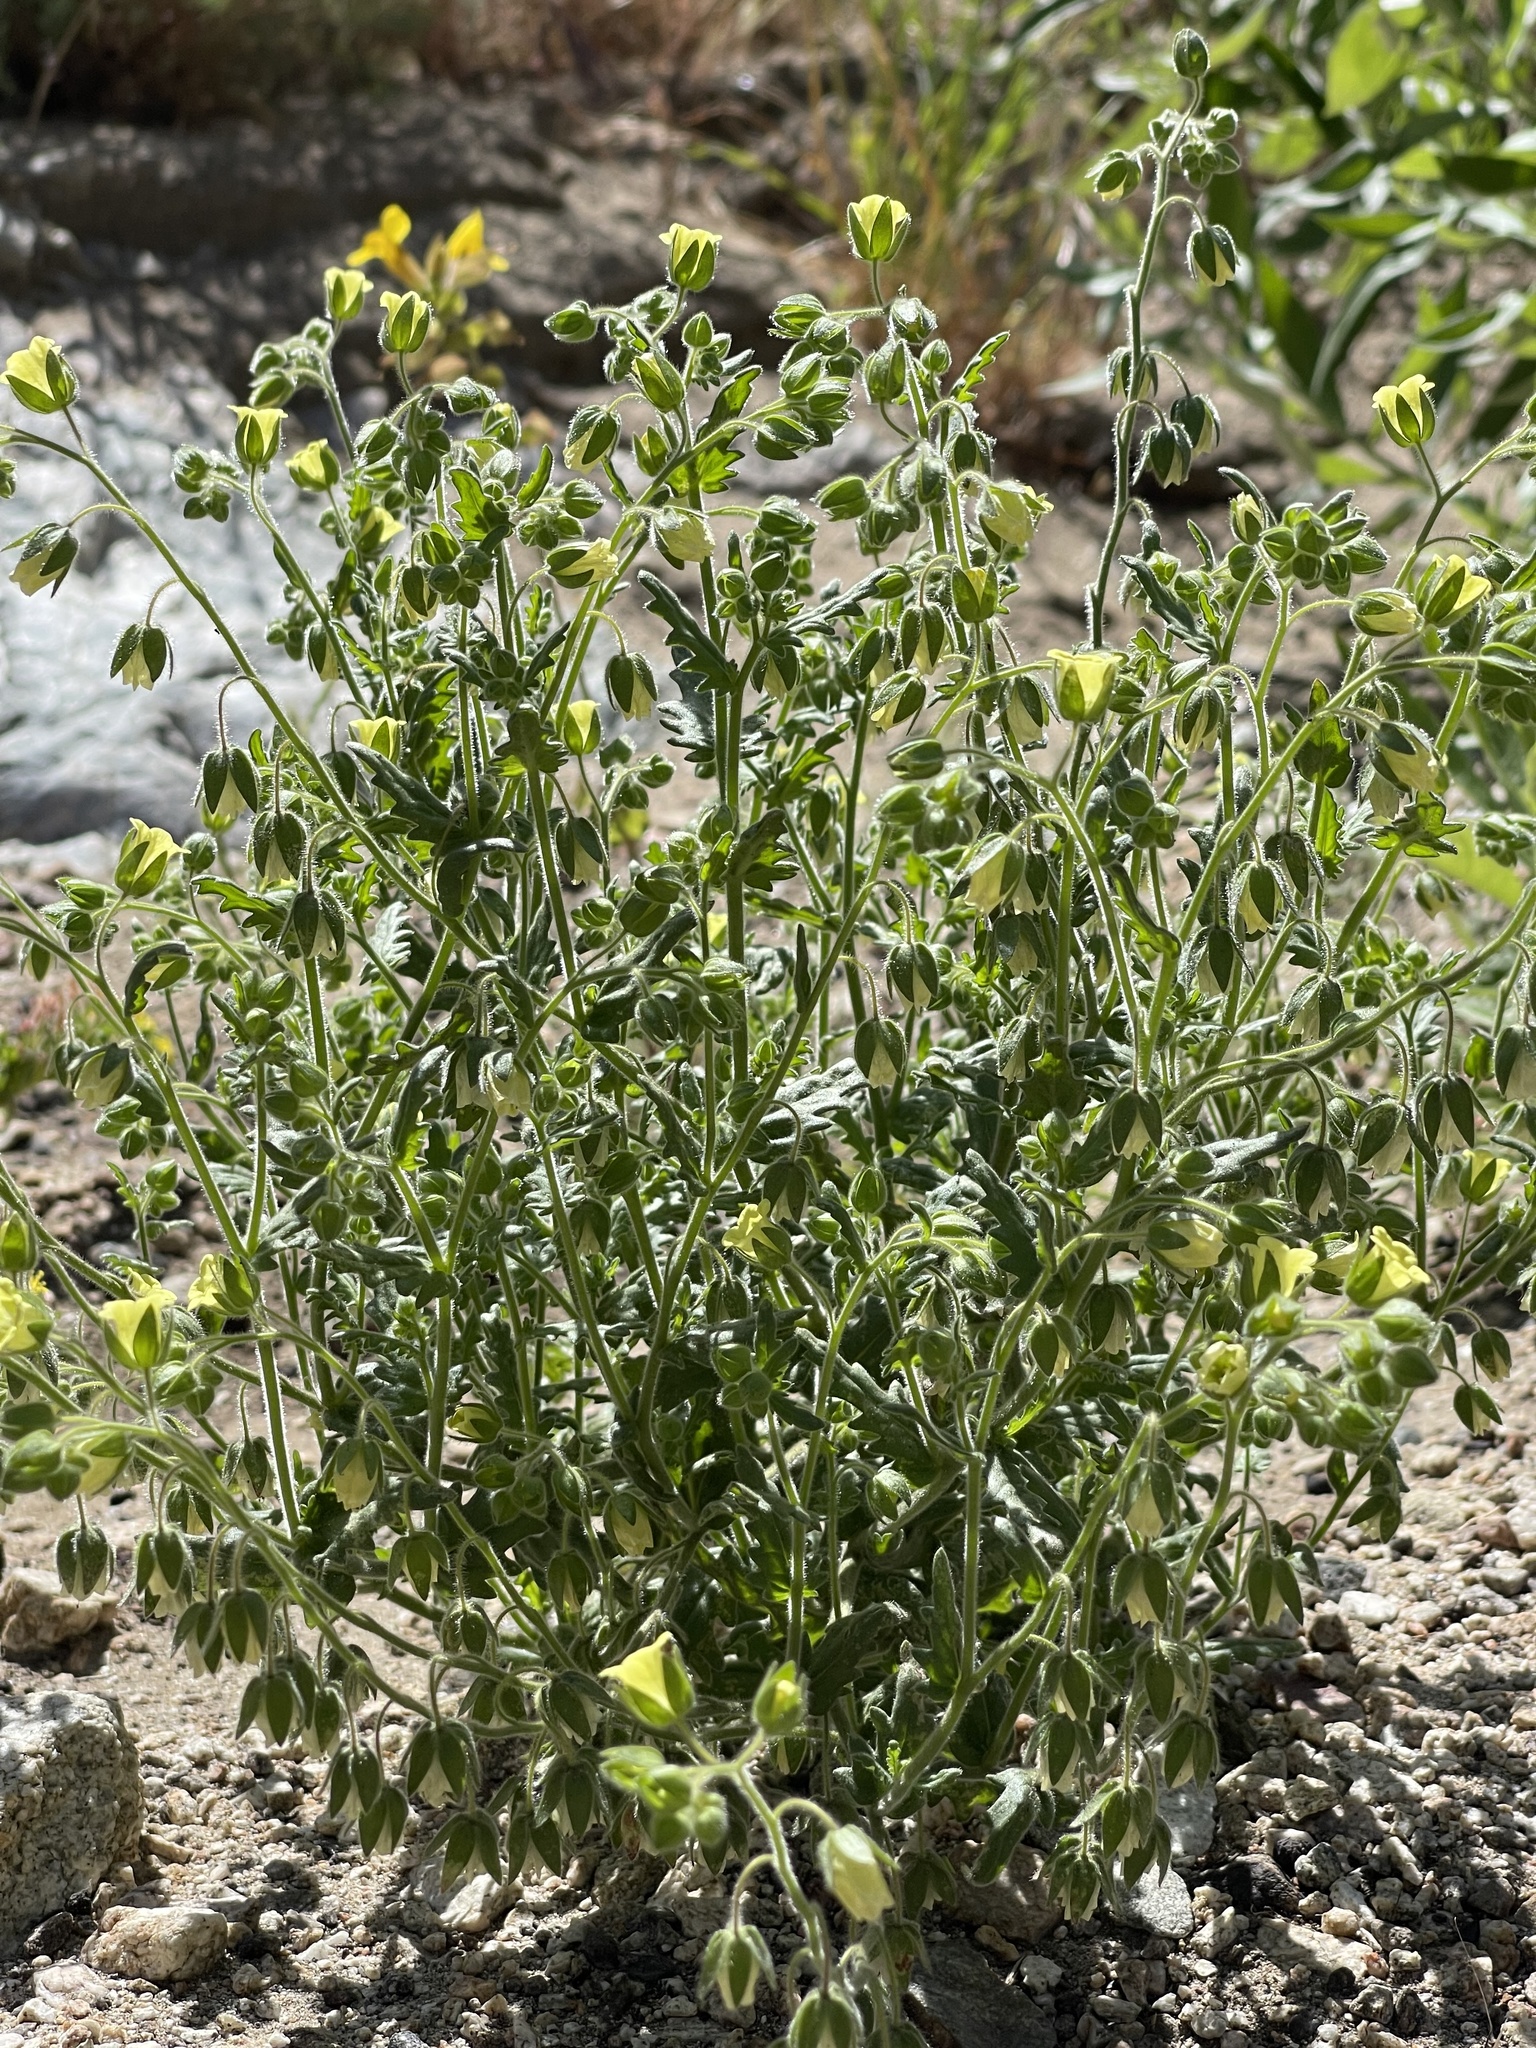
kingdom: Plantae
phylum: Tracheophyta
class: Magnoliopsida
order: Boraginales
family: Hydrophyllaceae
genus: Emmenanthe
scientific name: Emmenanthe penduliflora
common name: Whispering-bells
